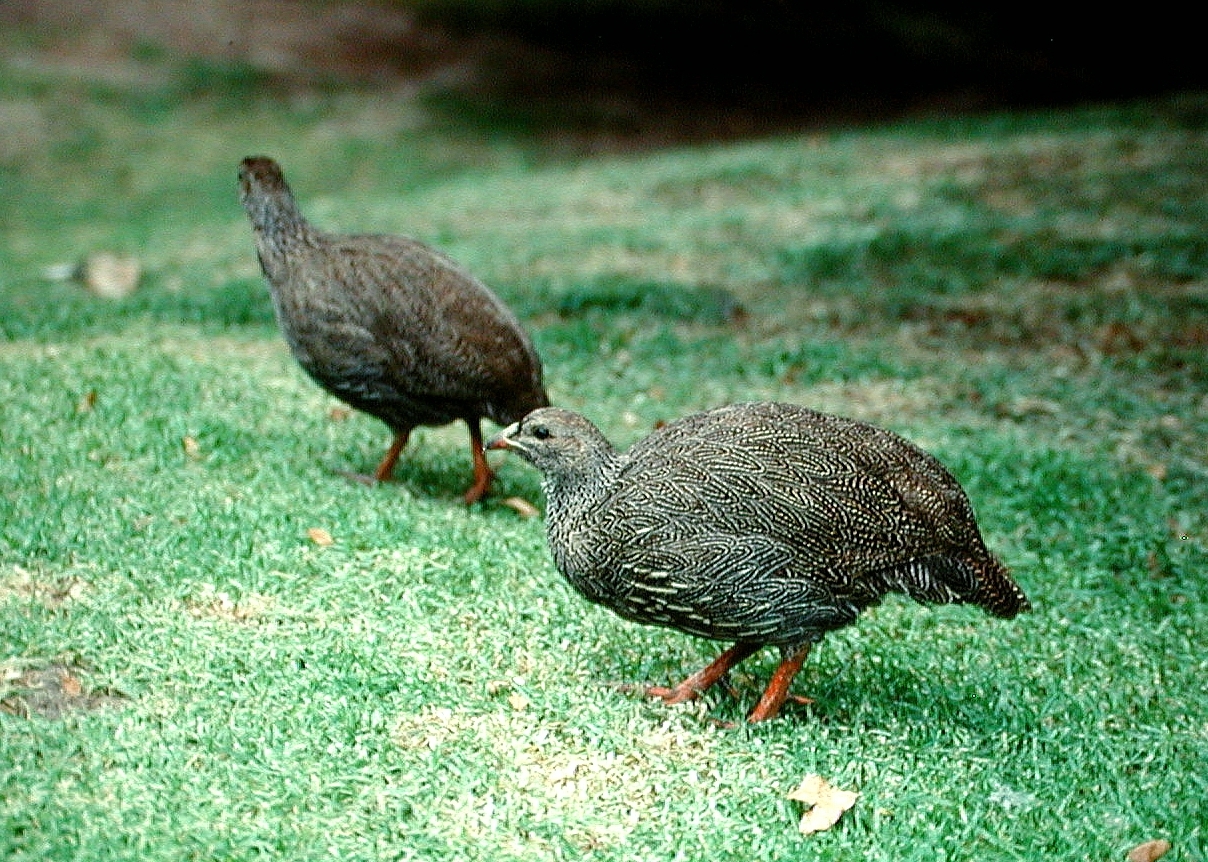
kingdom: Animalia
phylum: Chordata
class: Aves
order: Galliformes
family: Phasianidae
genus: Pternistis
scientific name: Pternistis capensis
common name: Cape spurfowl
